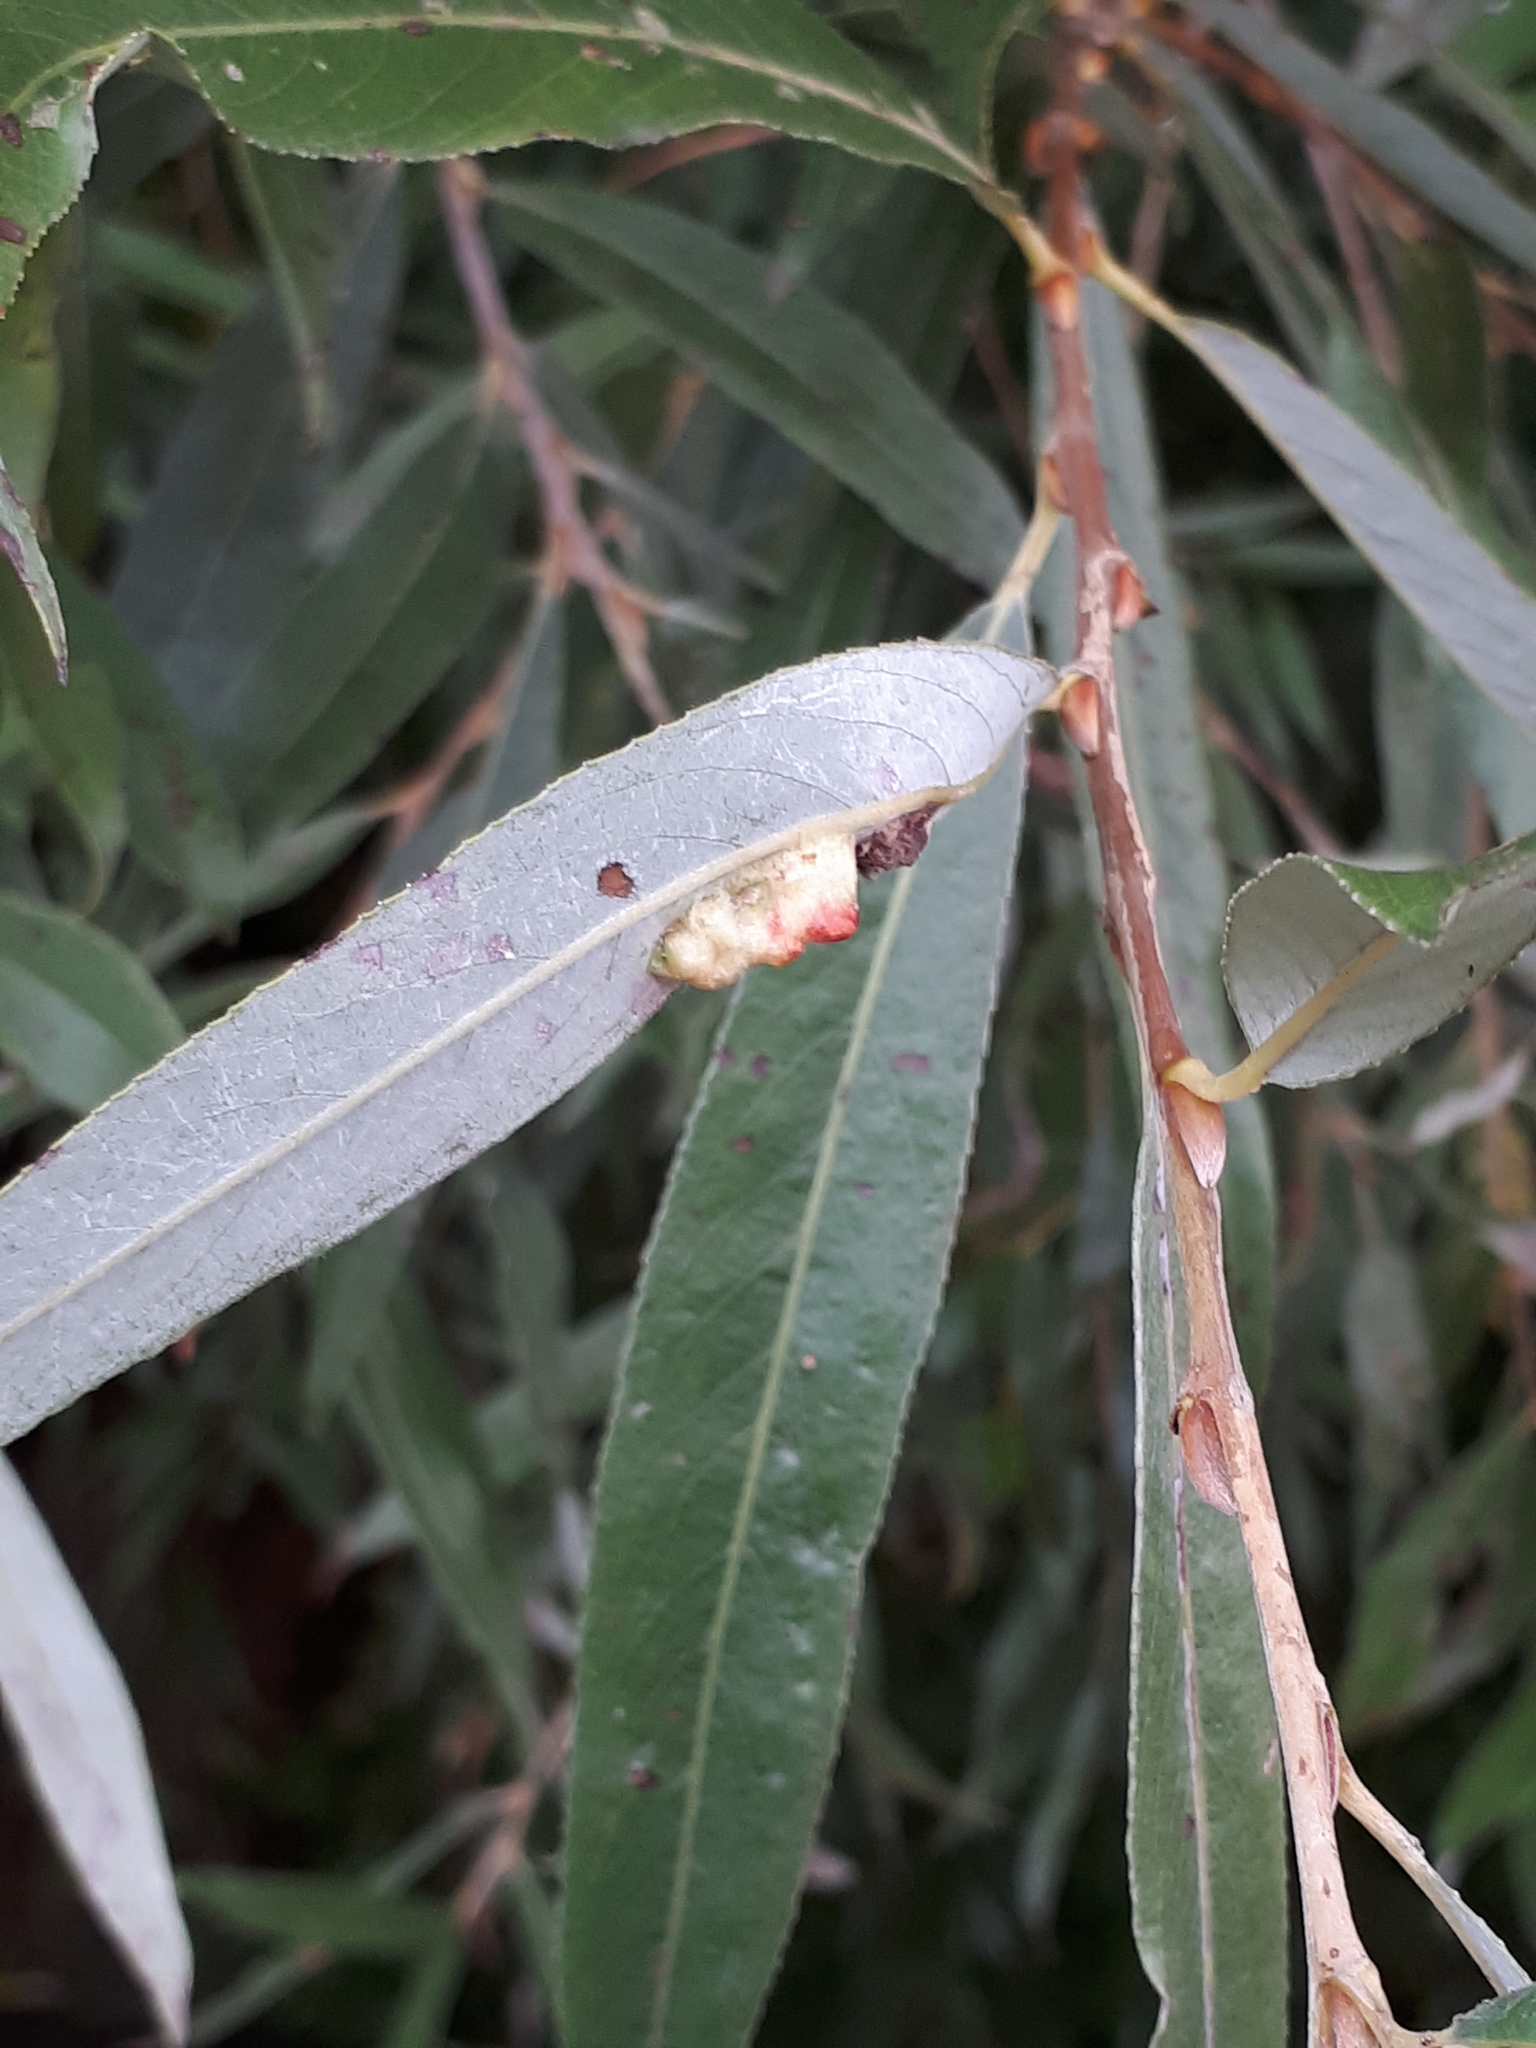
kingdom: Animalia
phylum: Arthropoda
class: Insecta
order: Hymenoptera
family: Tenthredinidae
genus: Pontania
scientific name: Pontania proxima
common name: Common sawfly
